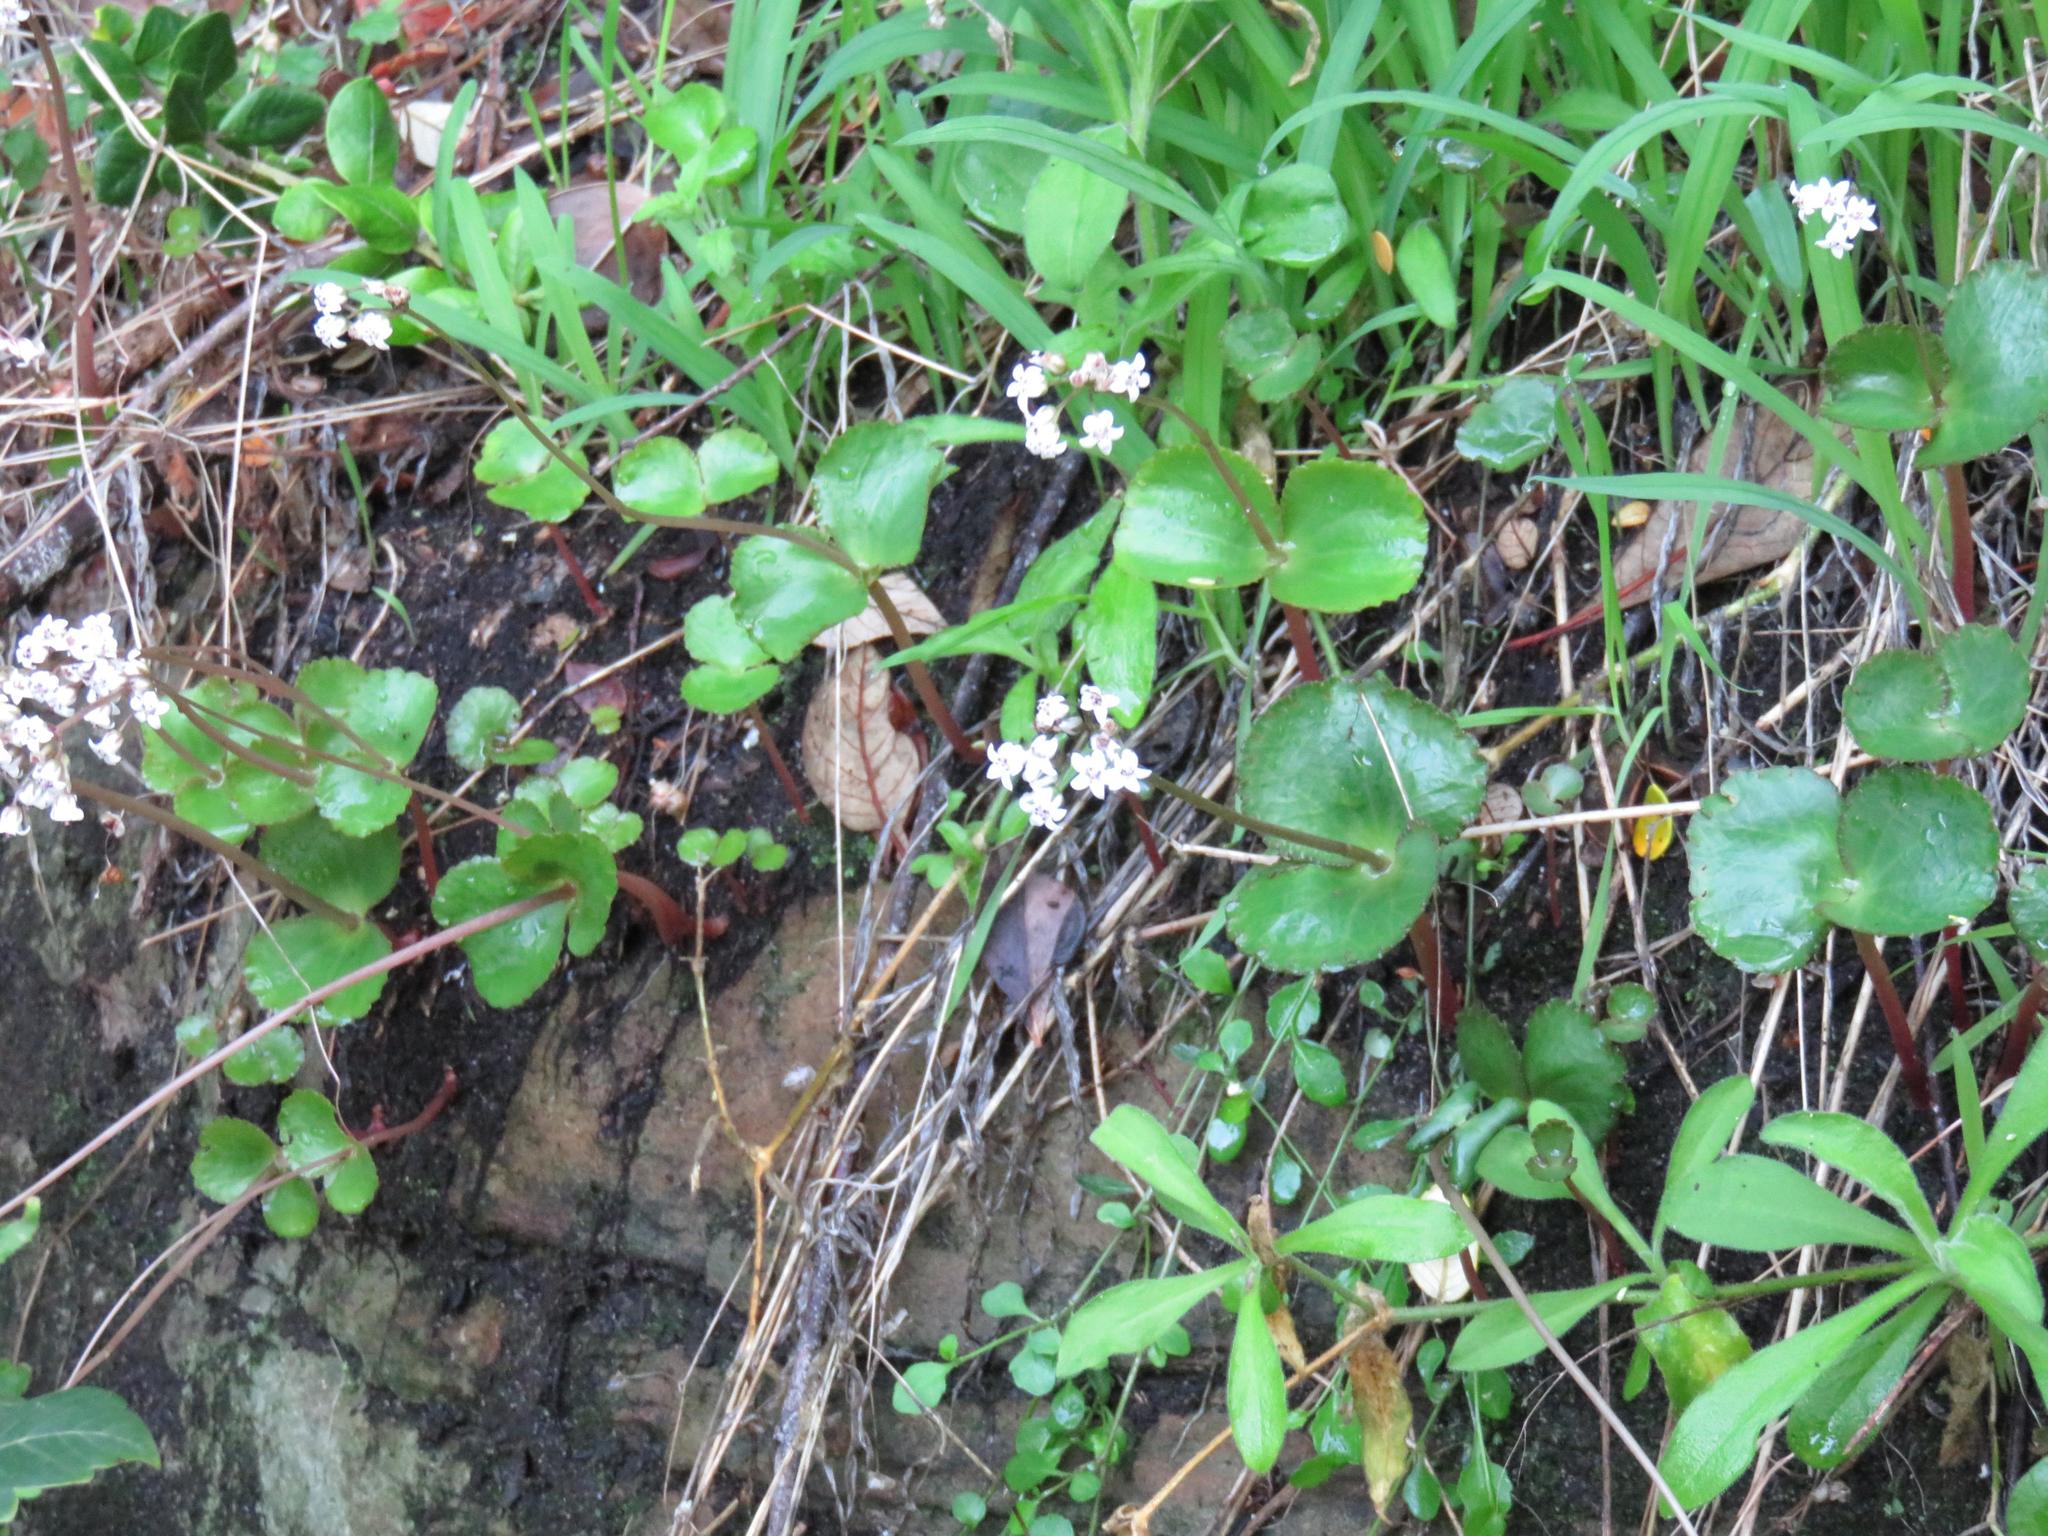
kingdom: Plantae
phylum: Tracheophyta
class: Magnoliopsida
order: Saxifragales
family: Crassulaceae
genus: Crassula
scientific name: Crassula saxifraga
